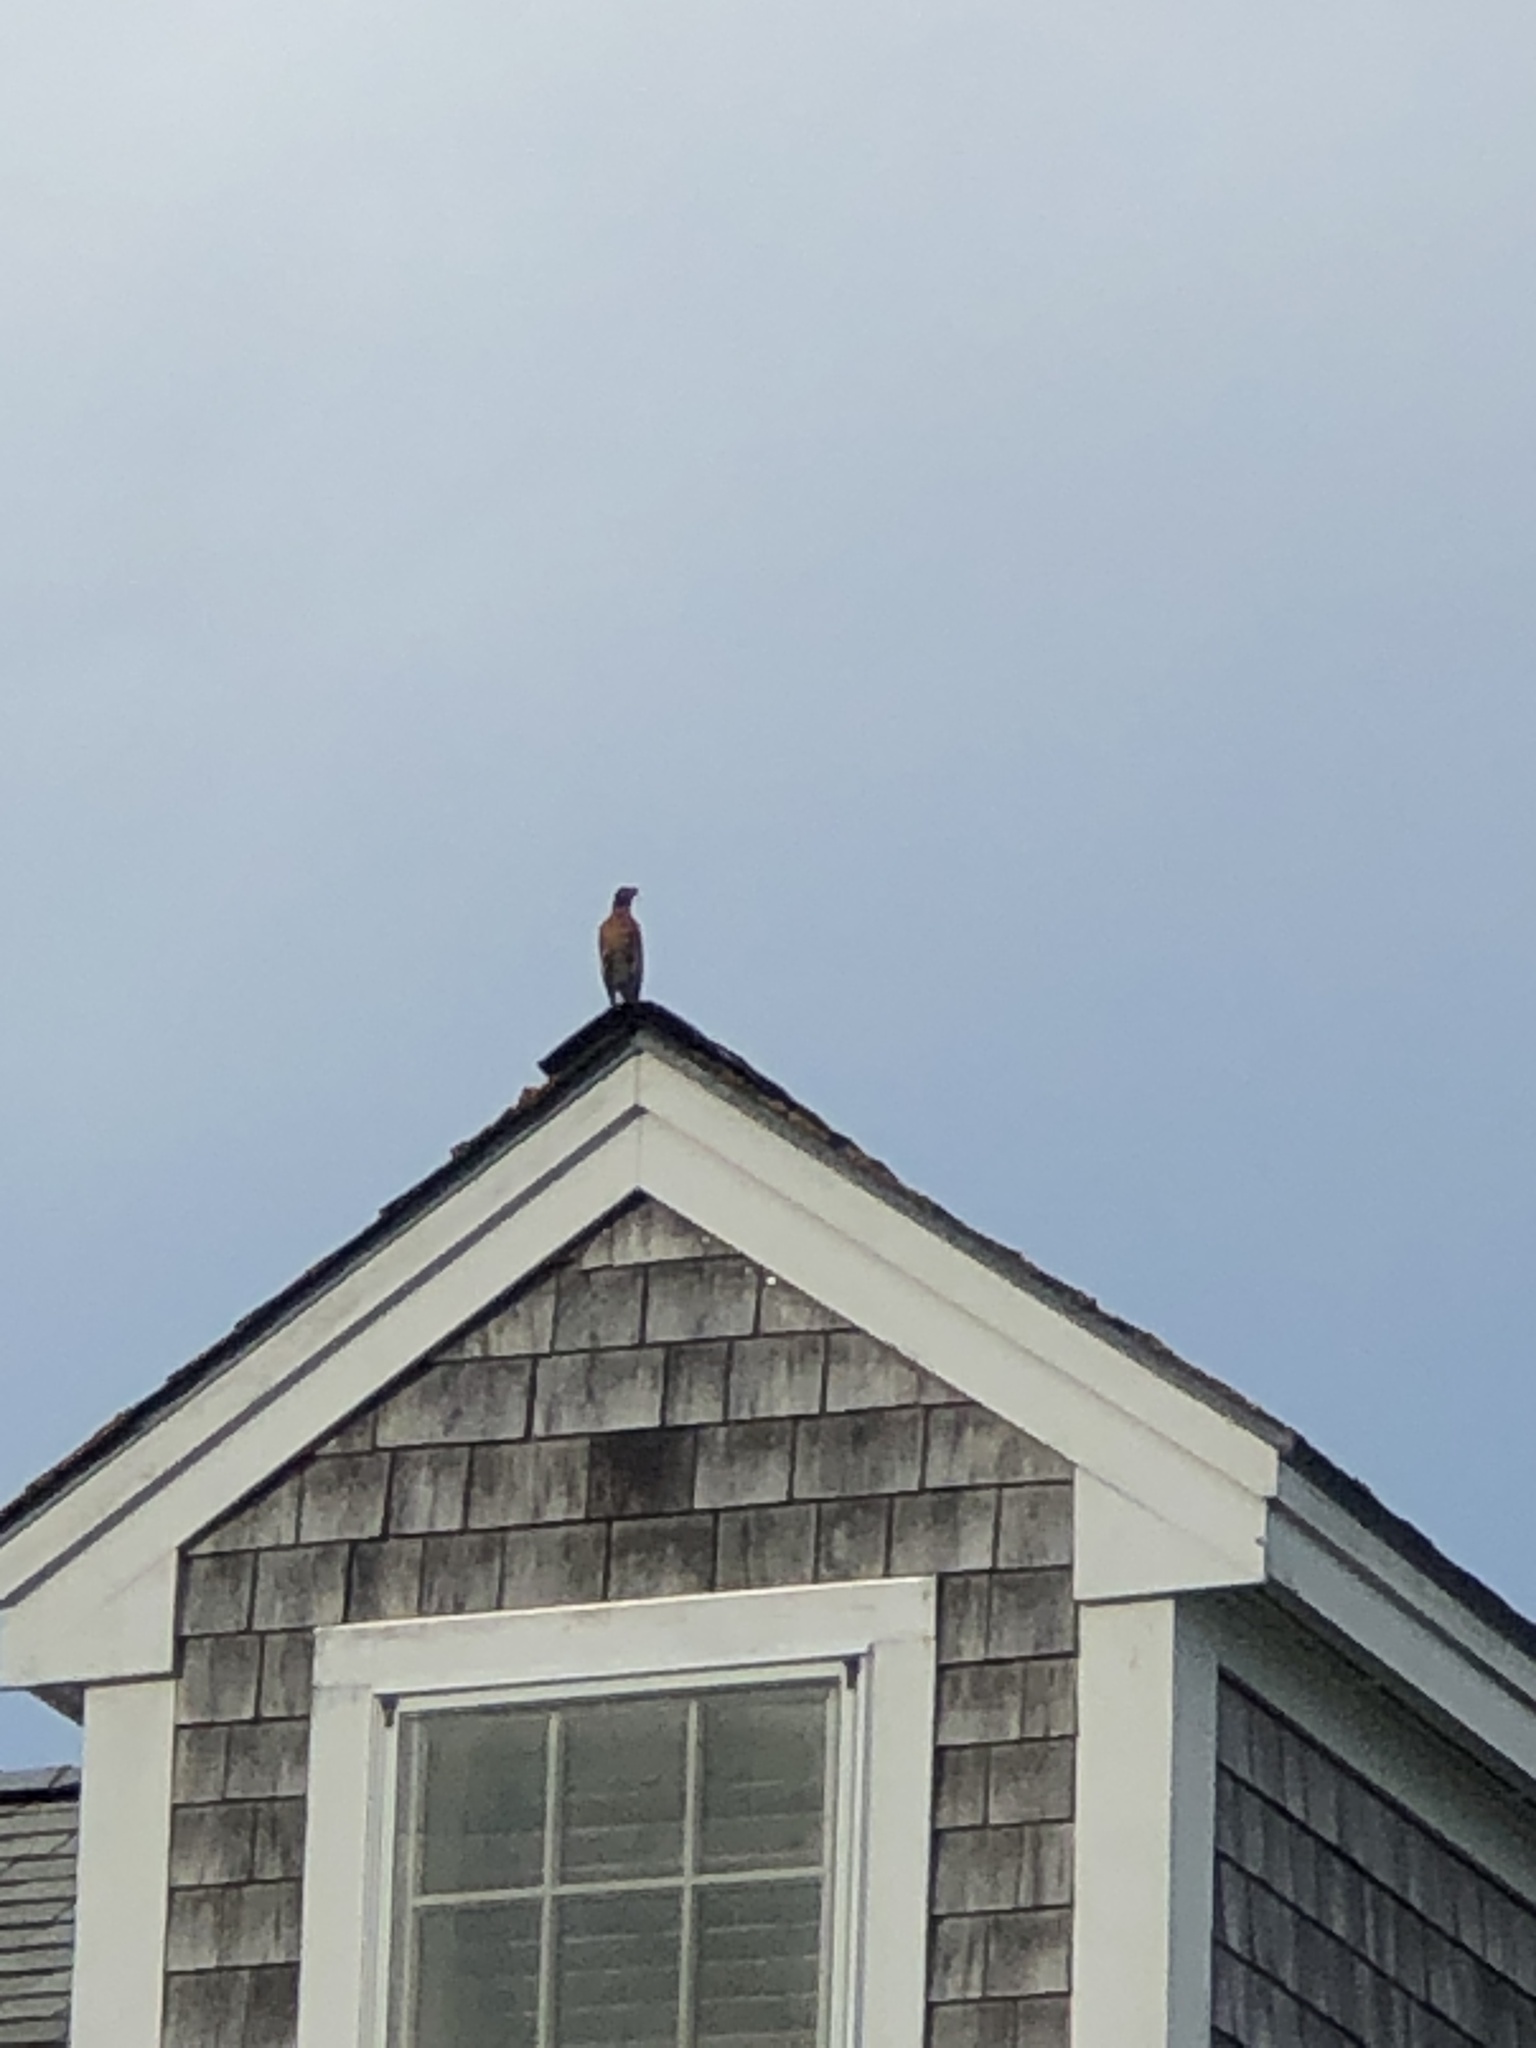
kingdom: Animalia
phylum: Chordata
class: Aves
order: Passeriformes
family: Turdidae
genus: Turdus
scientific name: Turdus migratorius
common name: American robin
